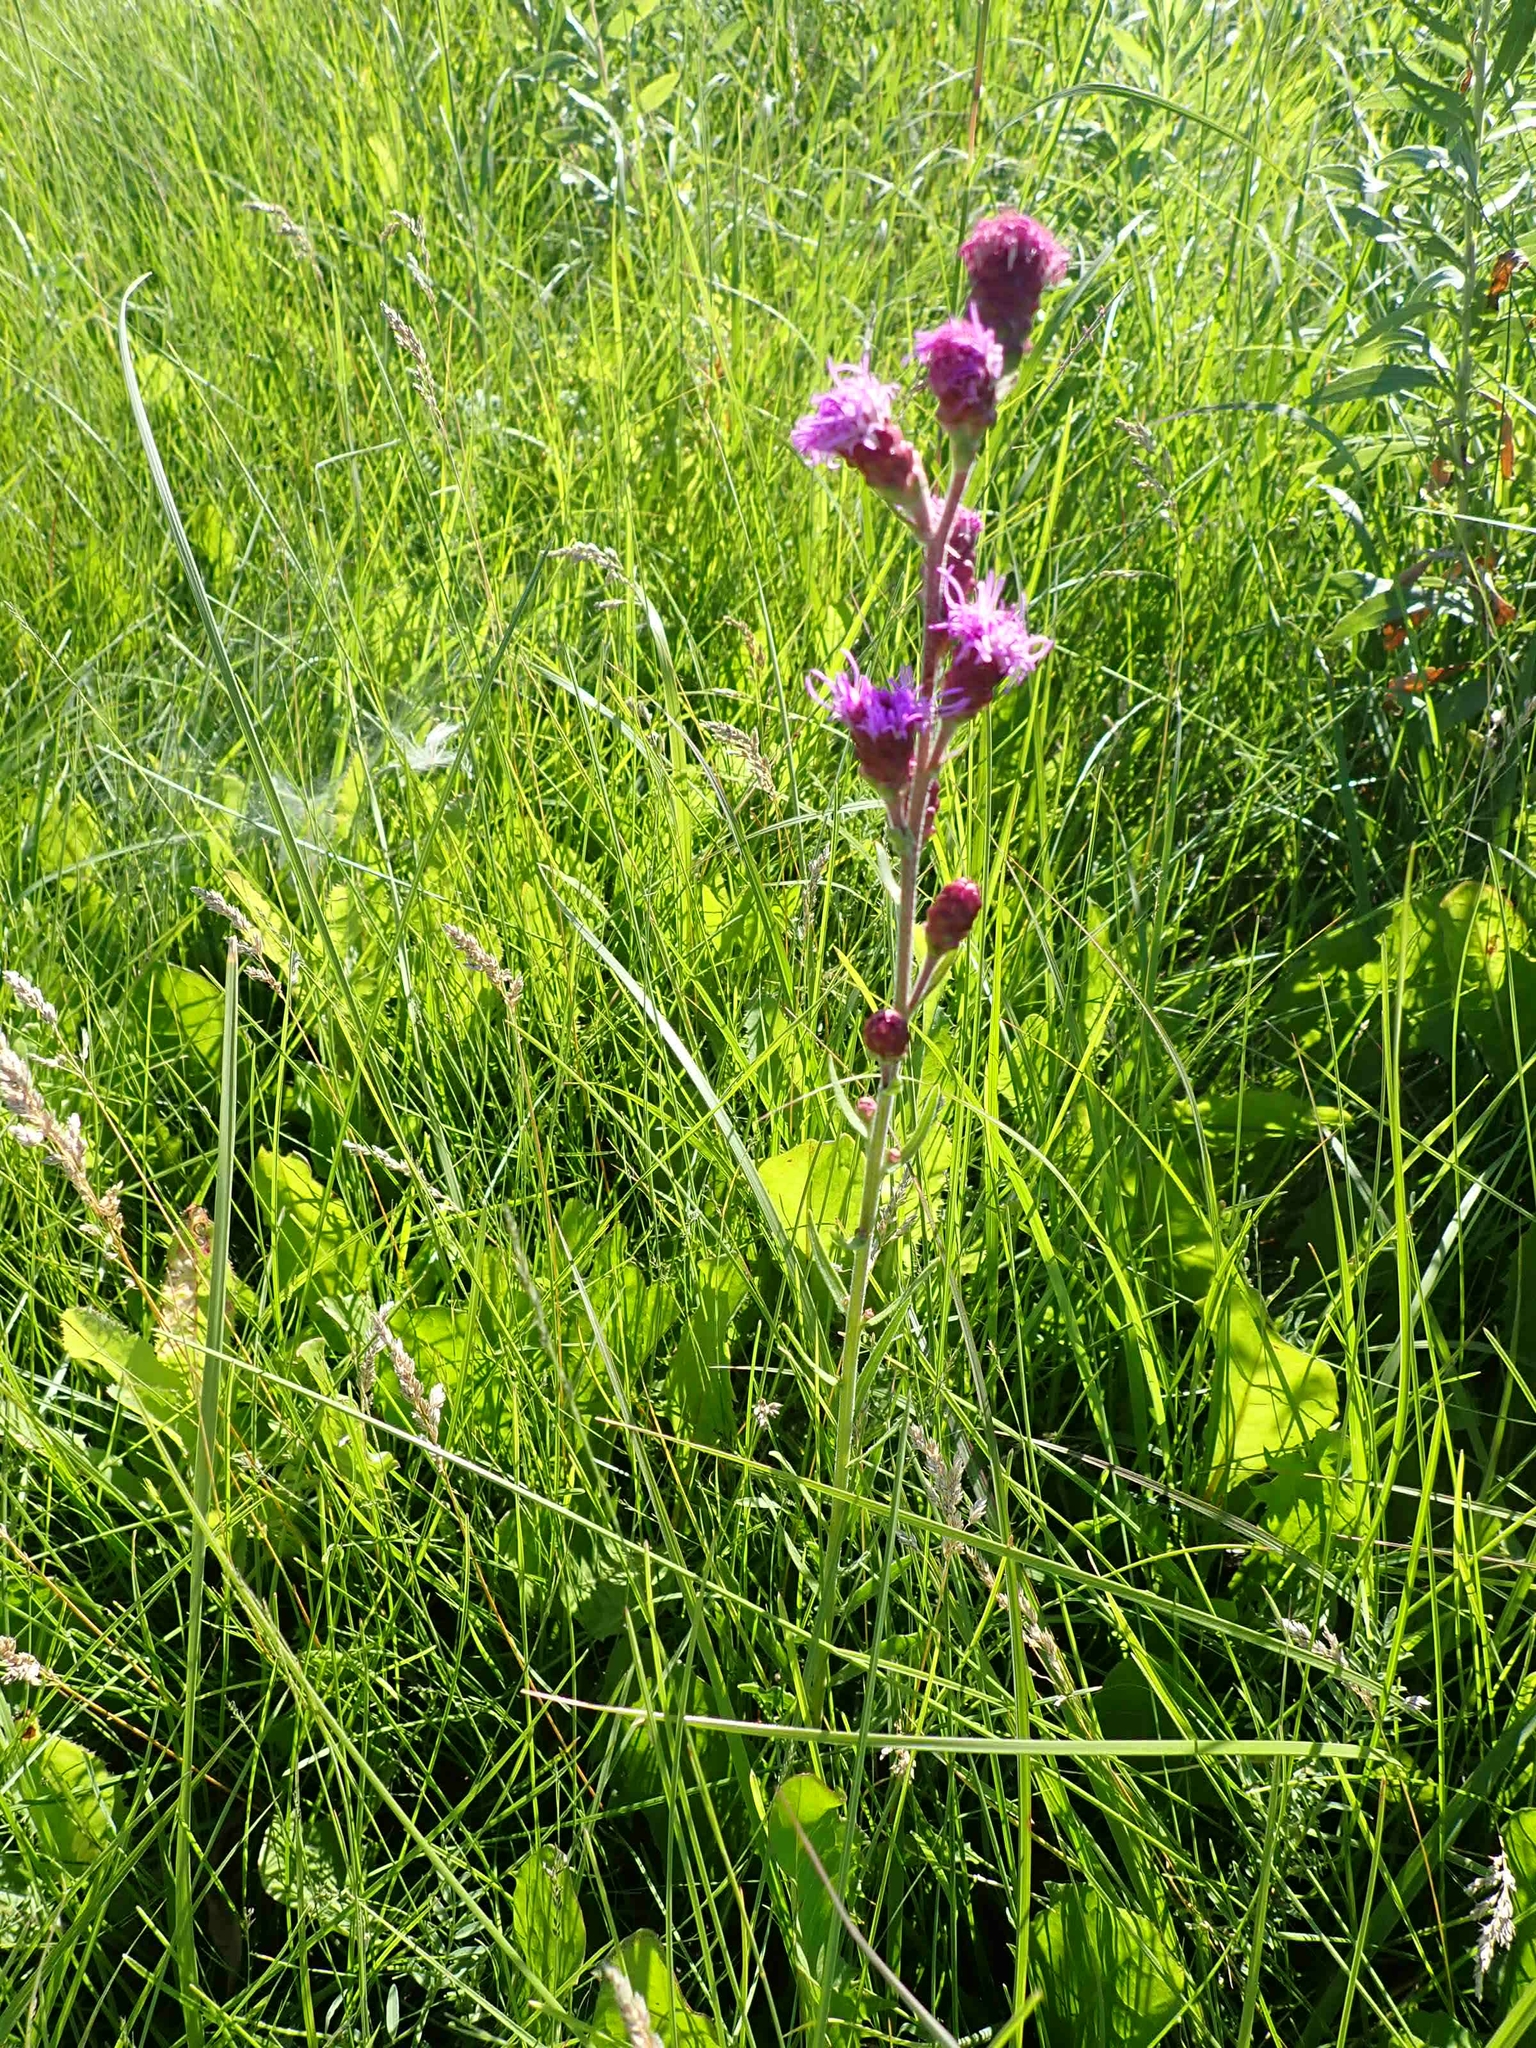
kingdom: Plantae
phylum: Tracheophyta
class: Magnoliopsida
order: Asterales
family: Asteraceae
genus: Liatris
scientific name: Liatris ligulistylis
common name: Northern plains gayfeather
